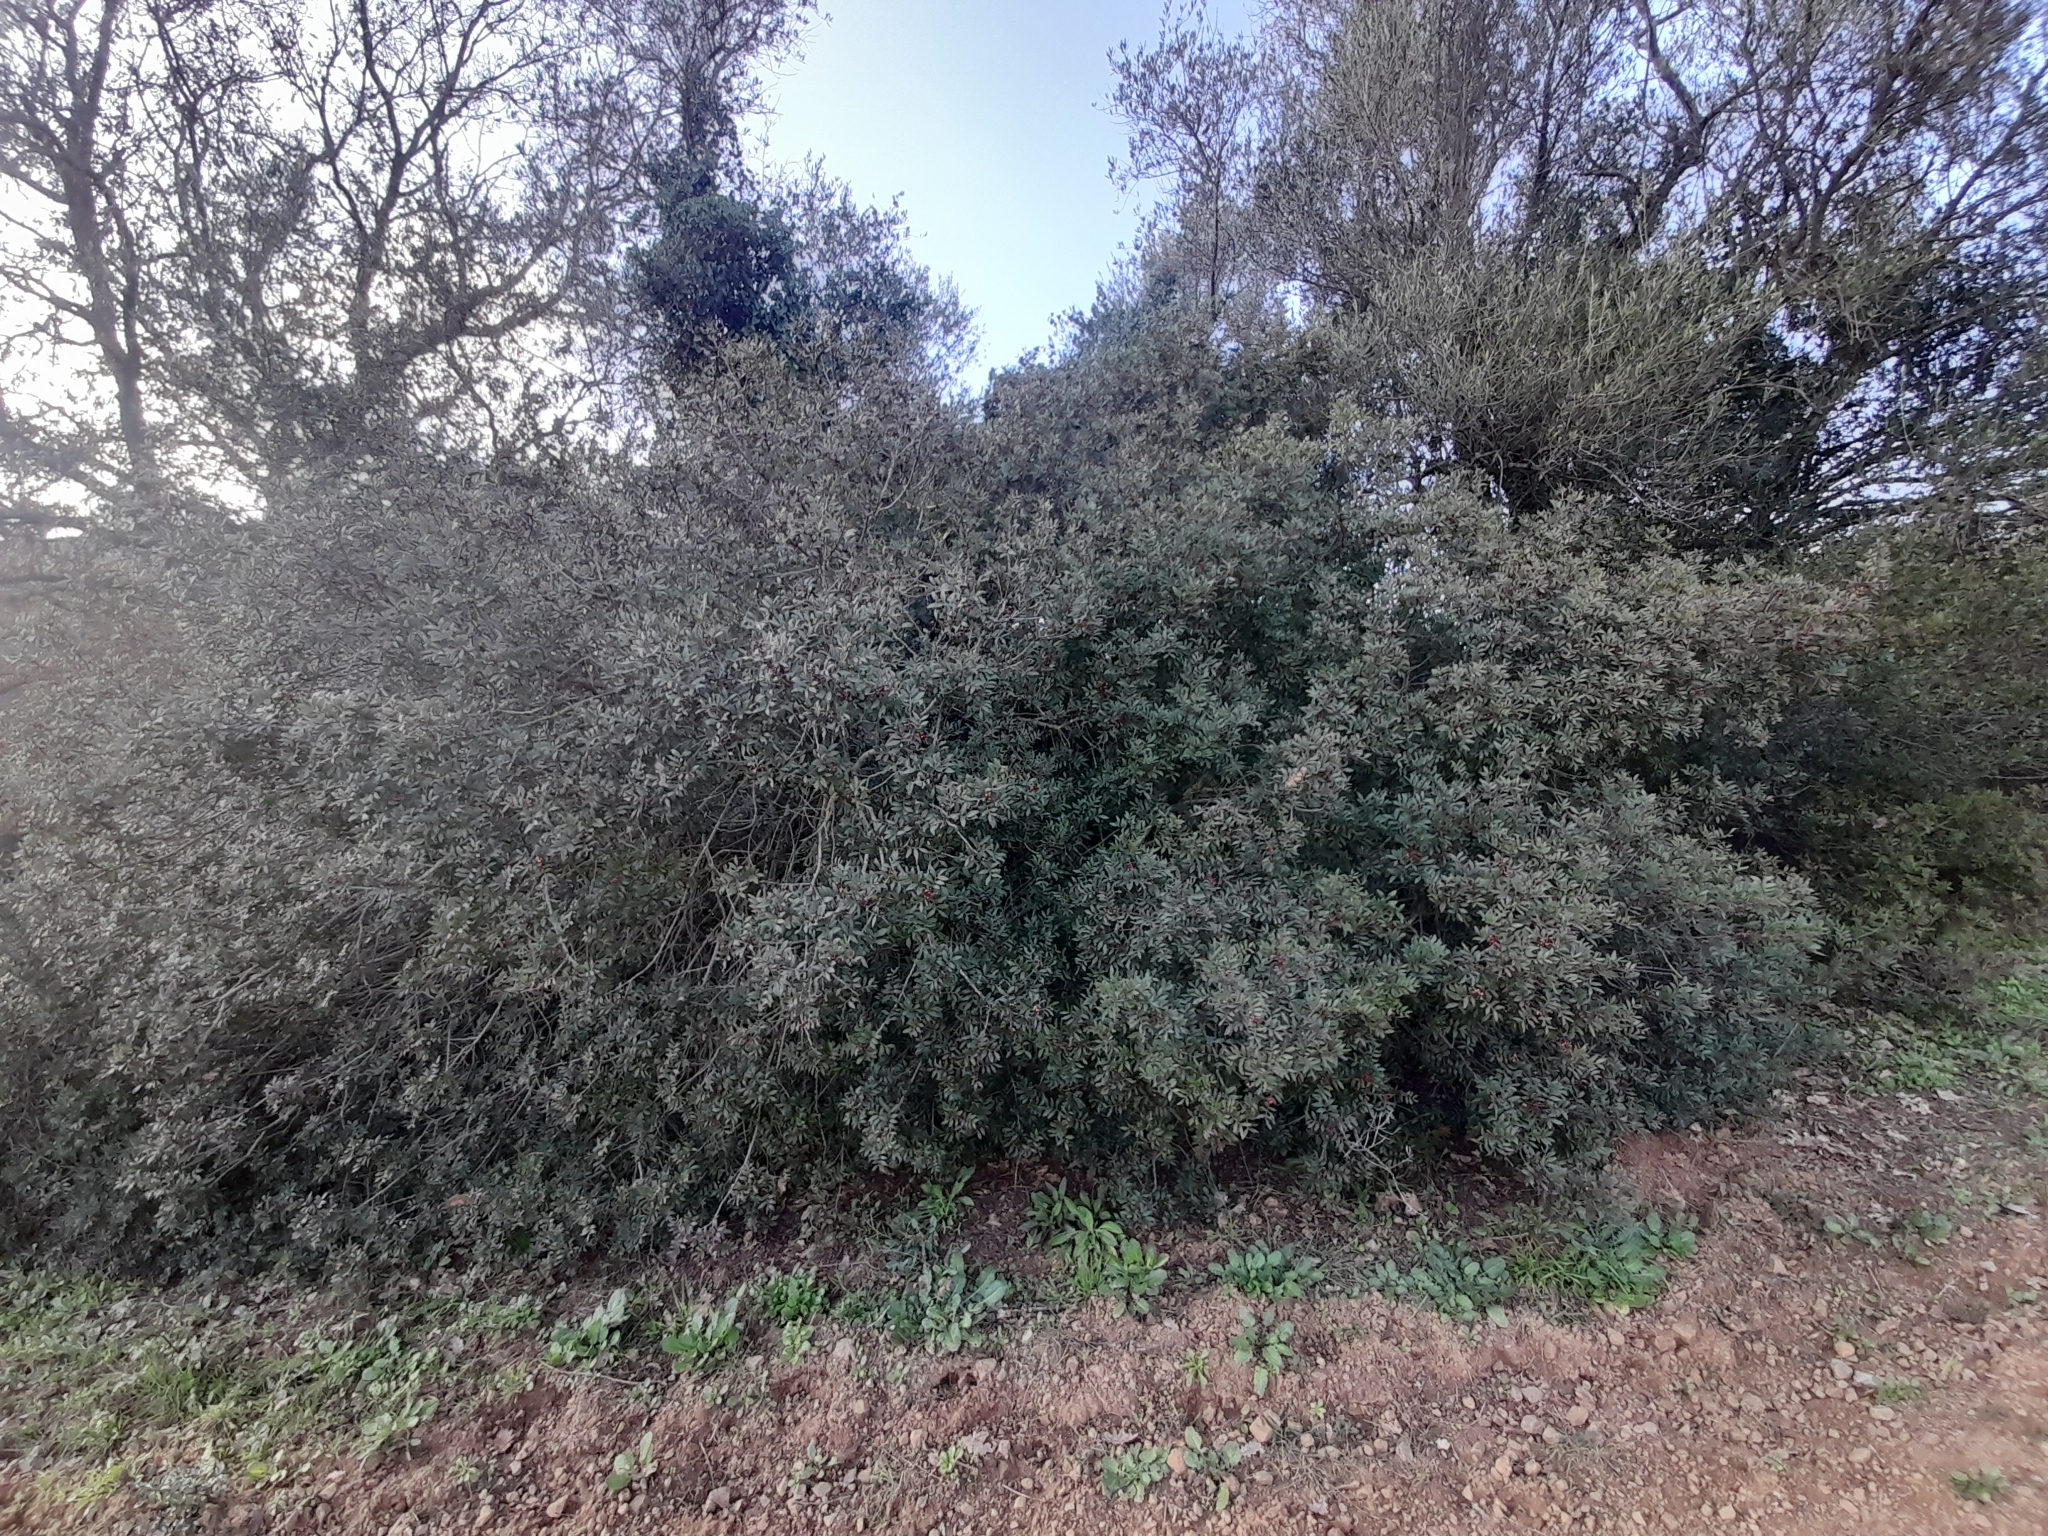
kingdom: Plantae
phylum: Tracheophyta
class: Magnoliopsida
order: Sapindales
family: Anacardiaceae
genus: Pistacia
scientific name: Pistacia lentiscus
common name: Lentisk
